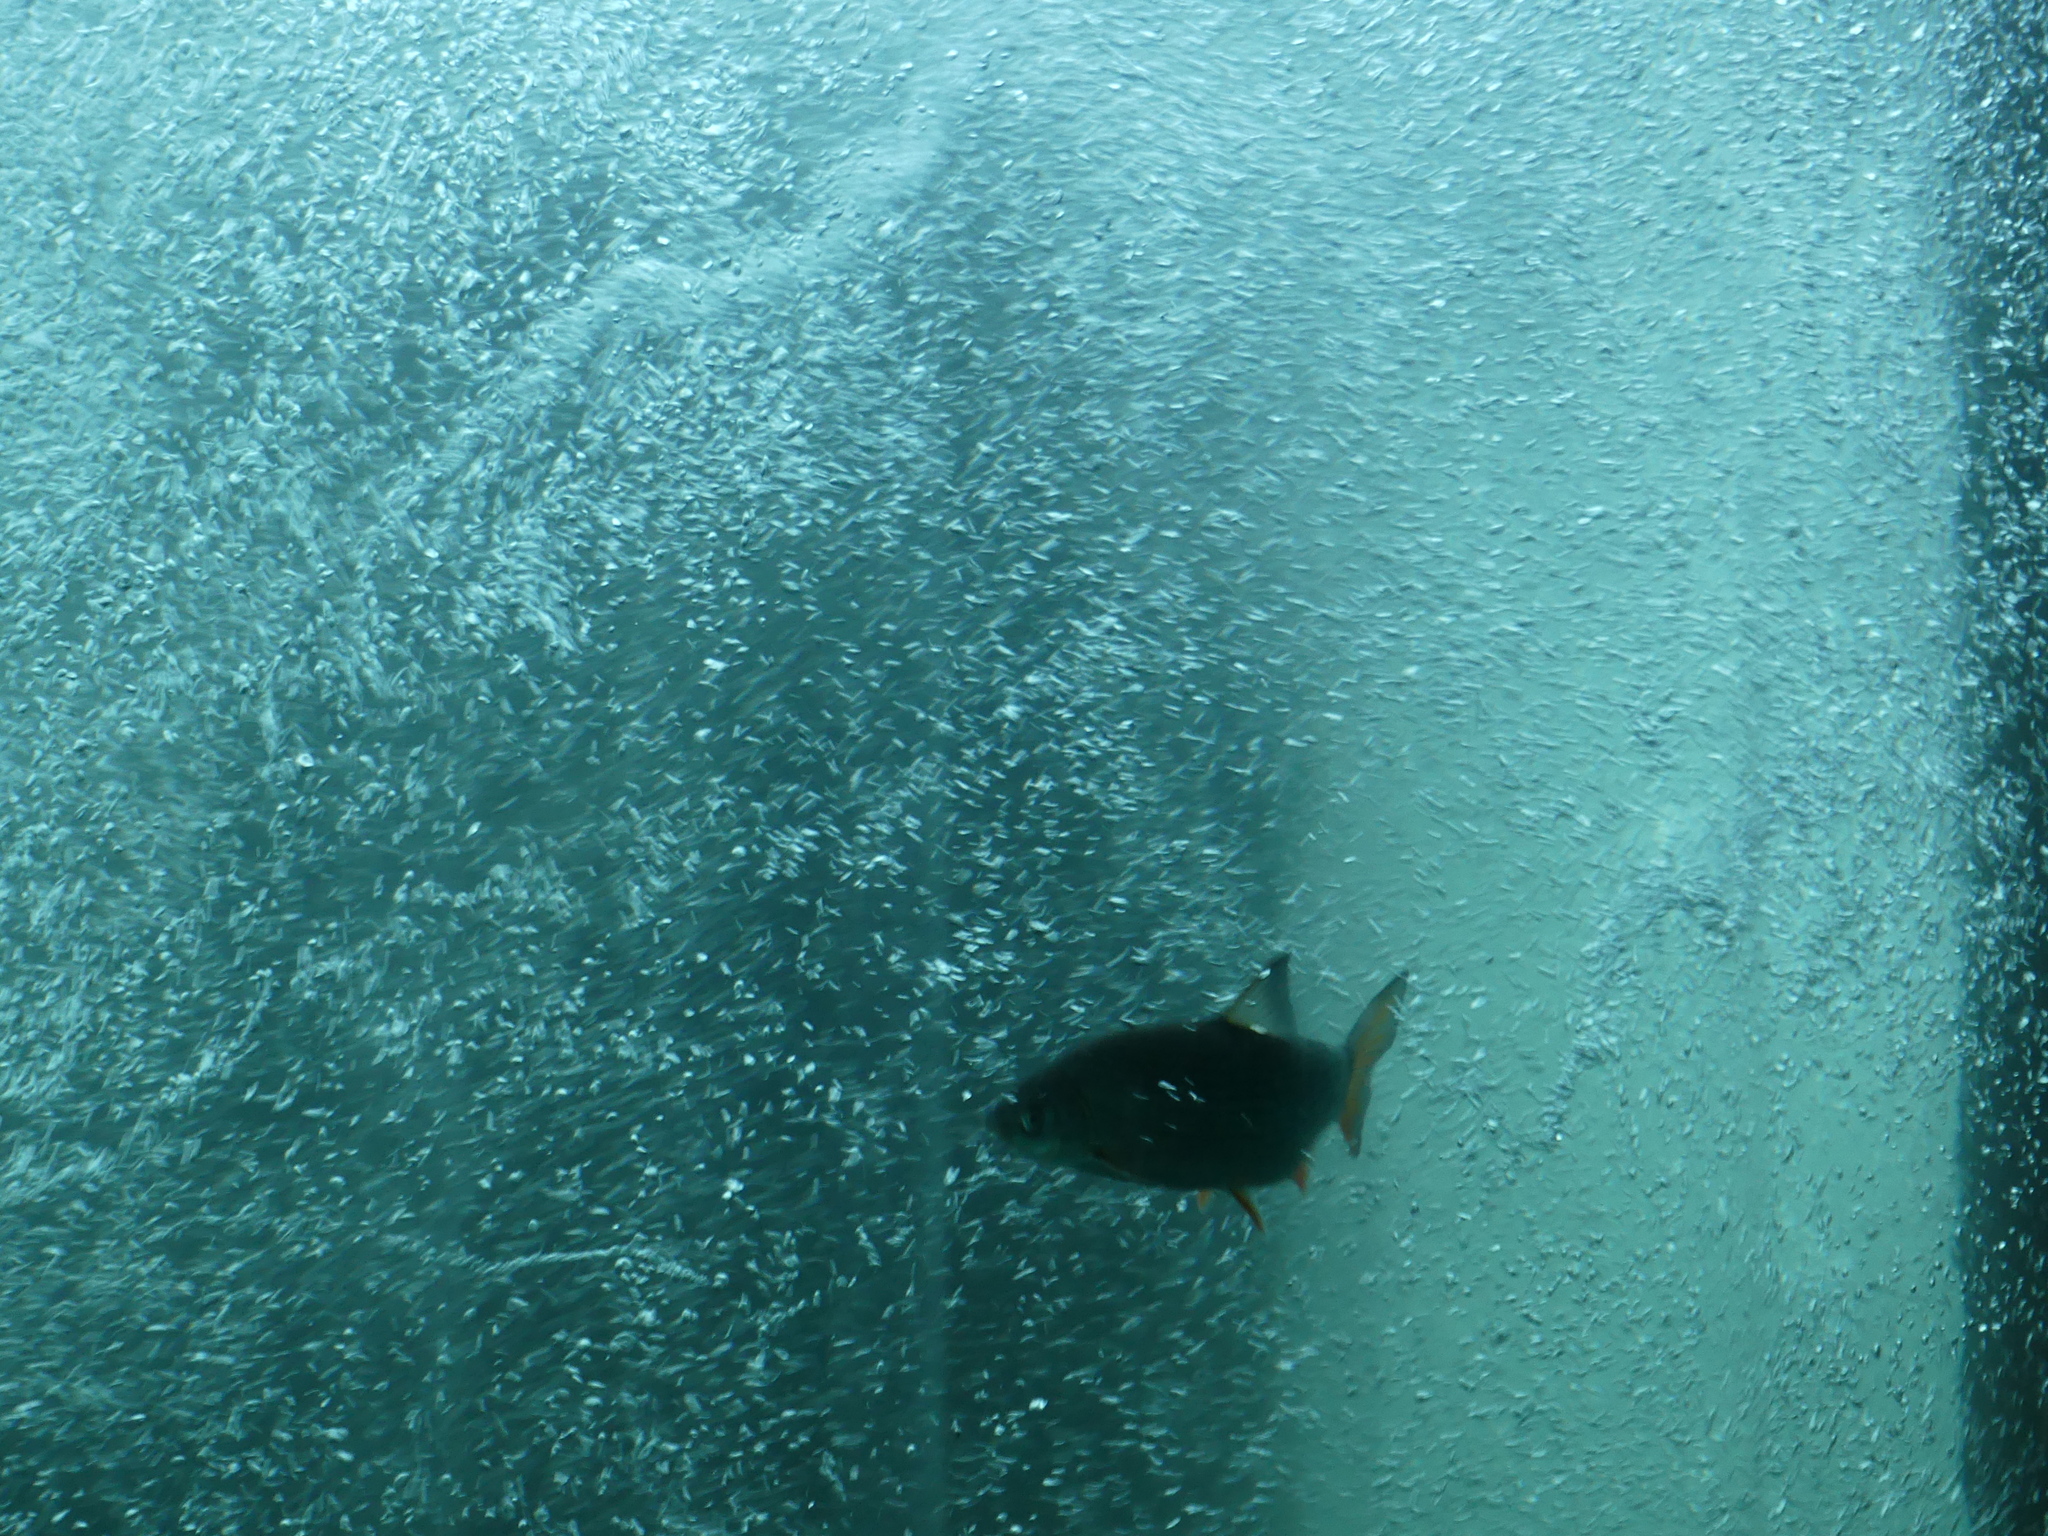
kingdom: Animalia
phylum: Chordata
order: Cypriniformes
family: Cyprinidae
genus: Chondrostoma
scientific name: Chondrostoma nasus
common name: Nase
